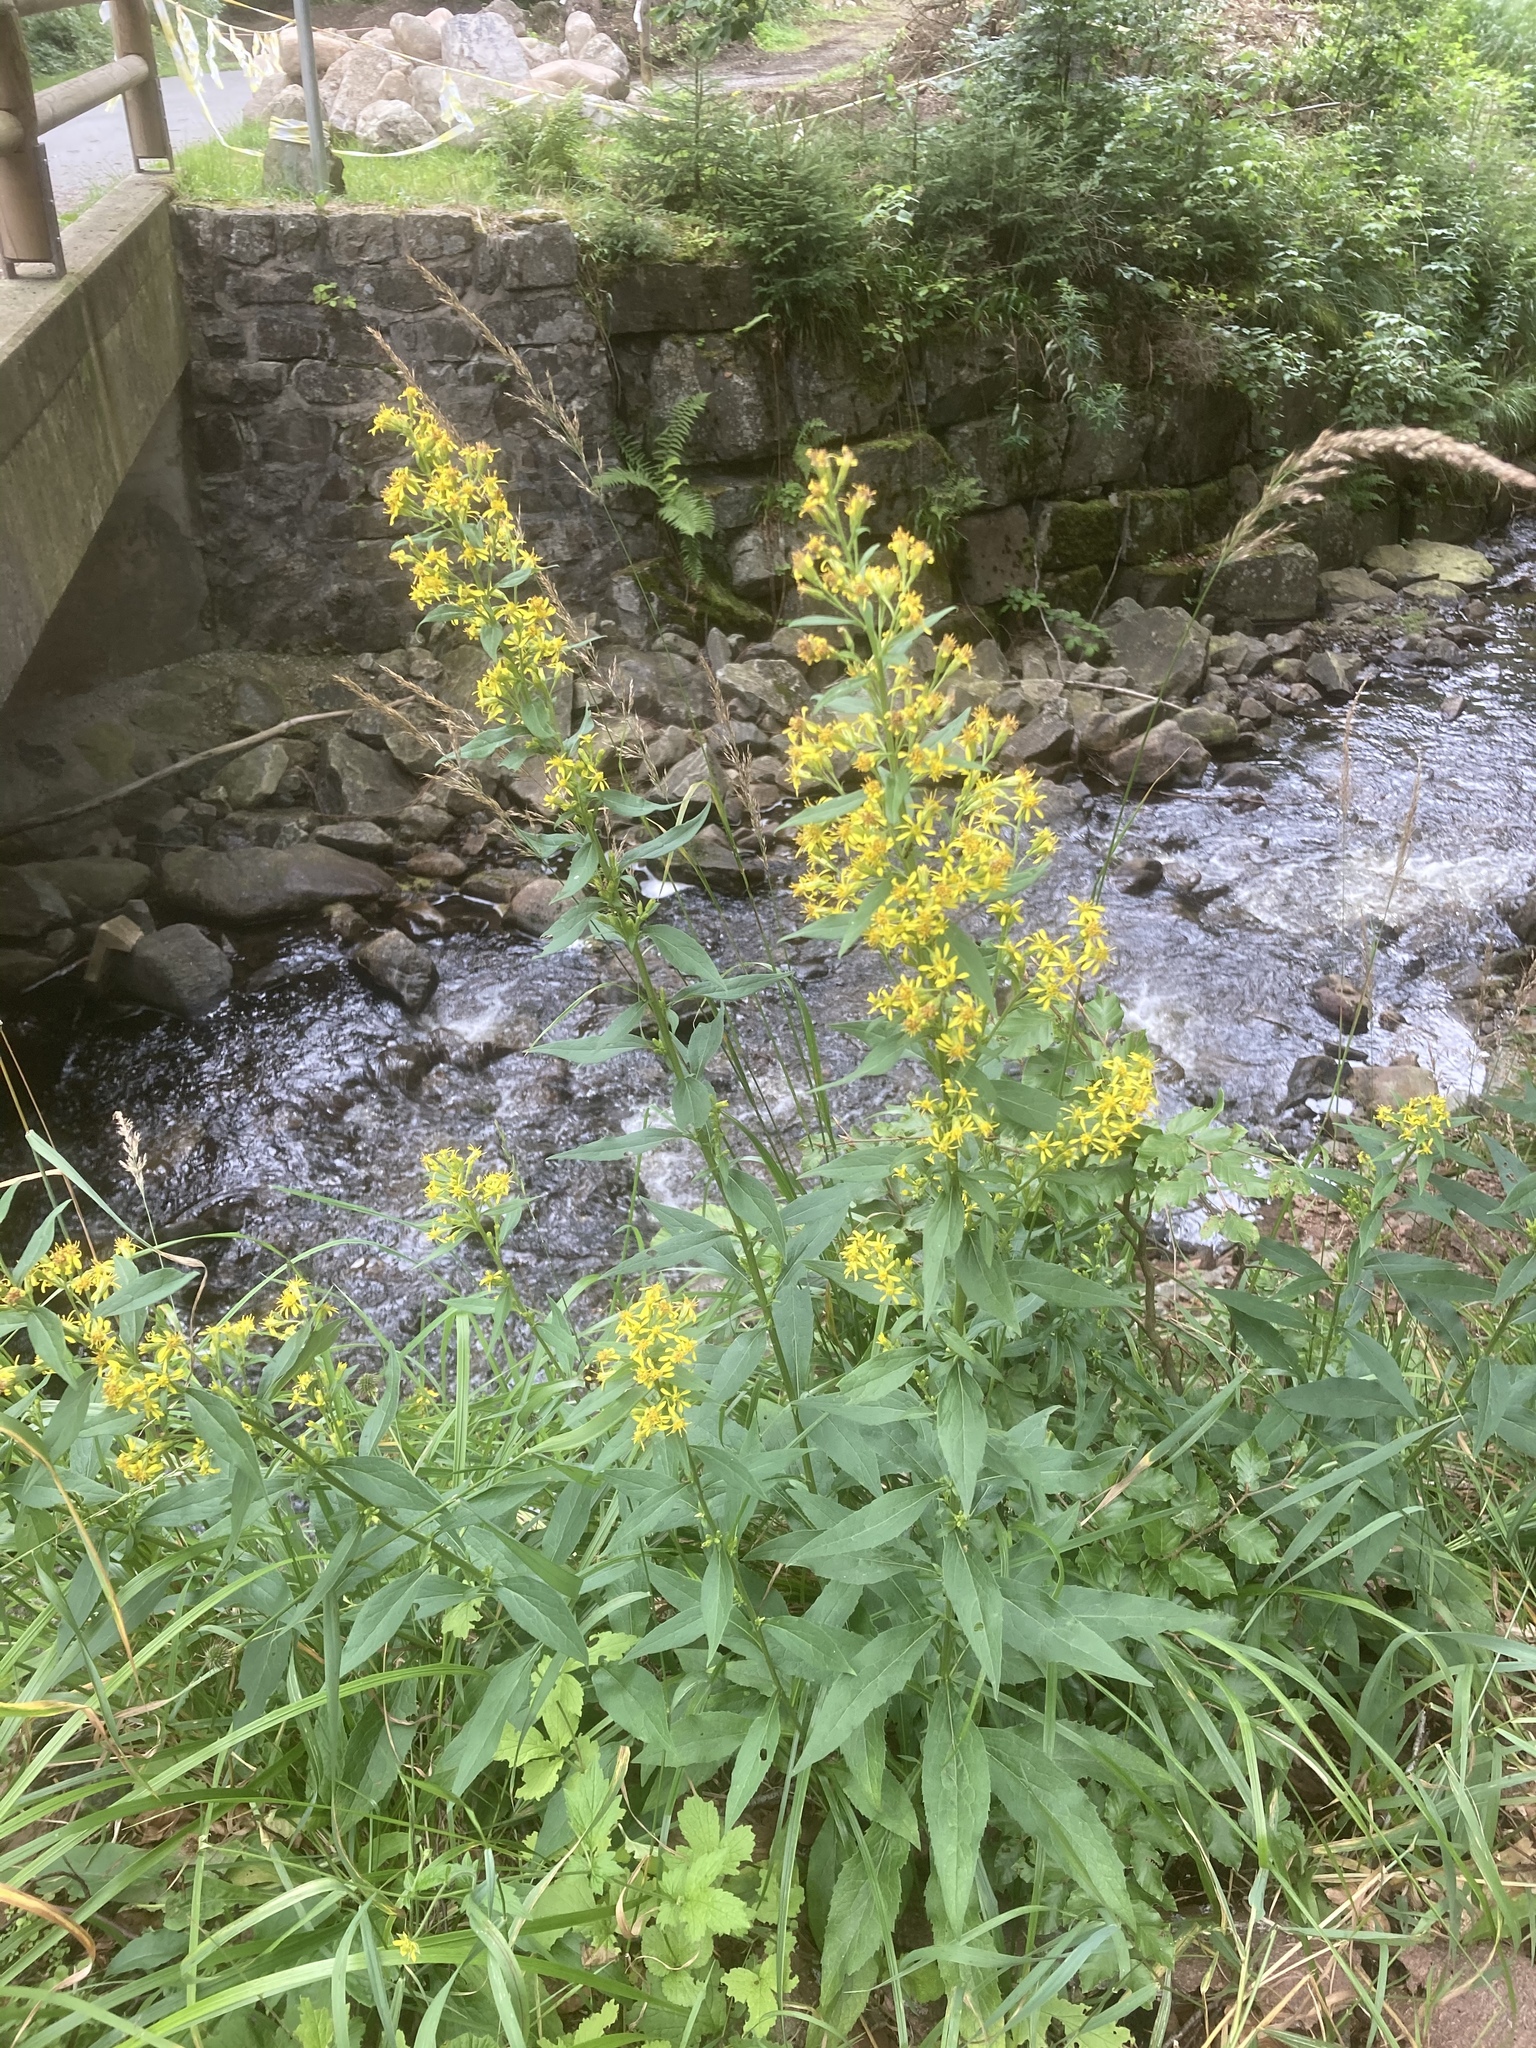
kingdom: Plantae
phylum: Tracheophyta
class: Magnoliopsida
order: Asterales
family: Asteraceae
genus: Solidago
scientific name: Solidago virgaurea
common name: Goldenrod
